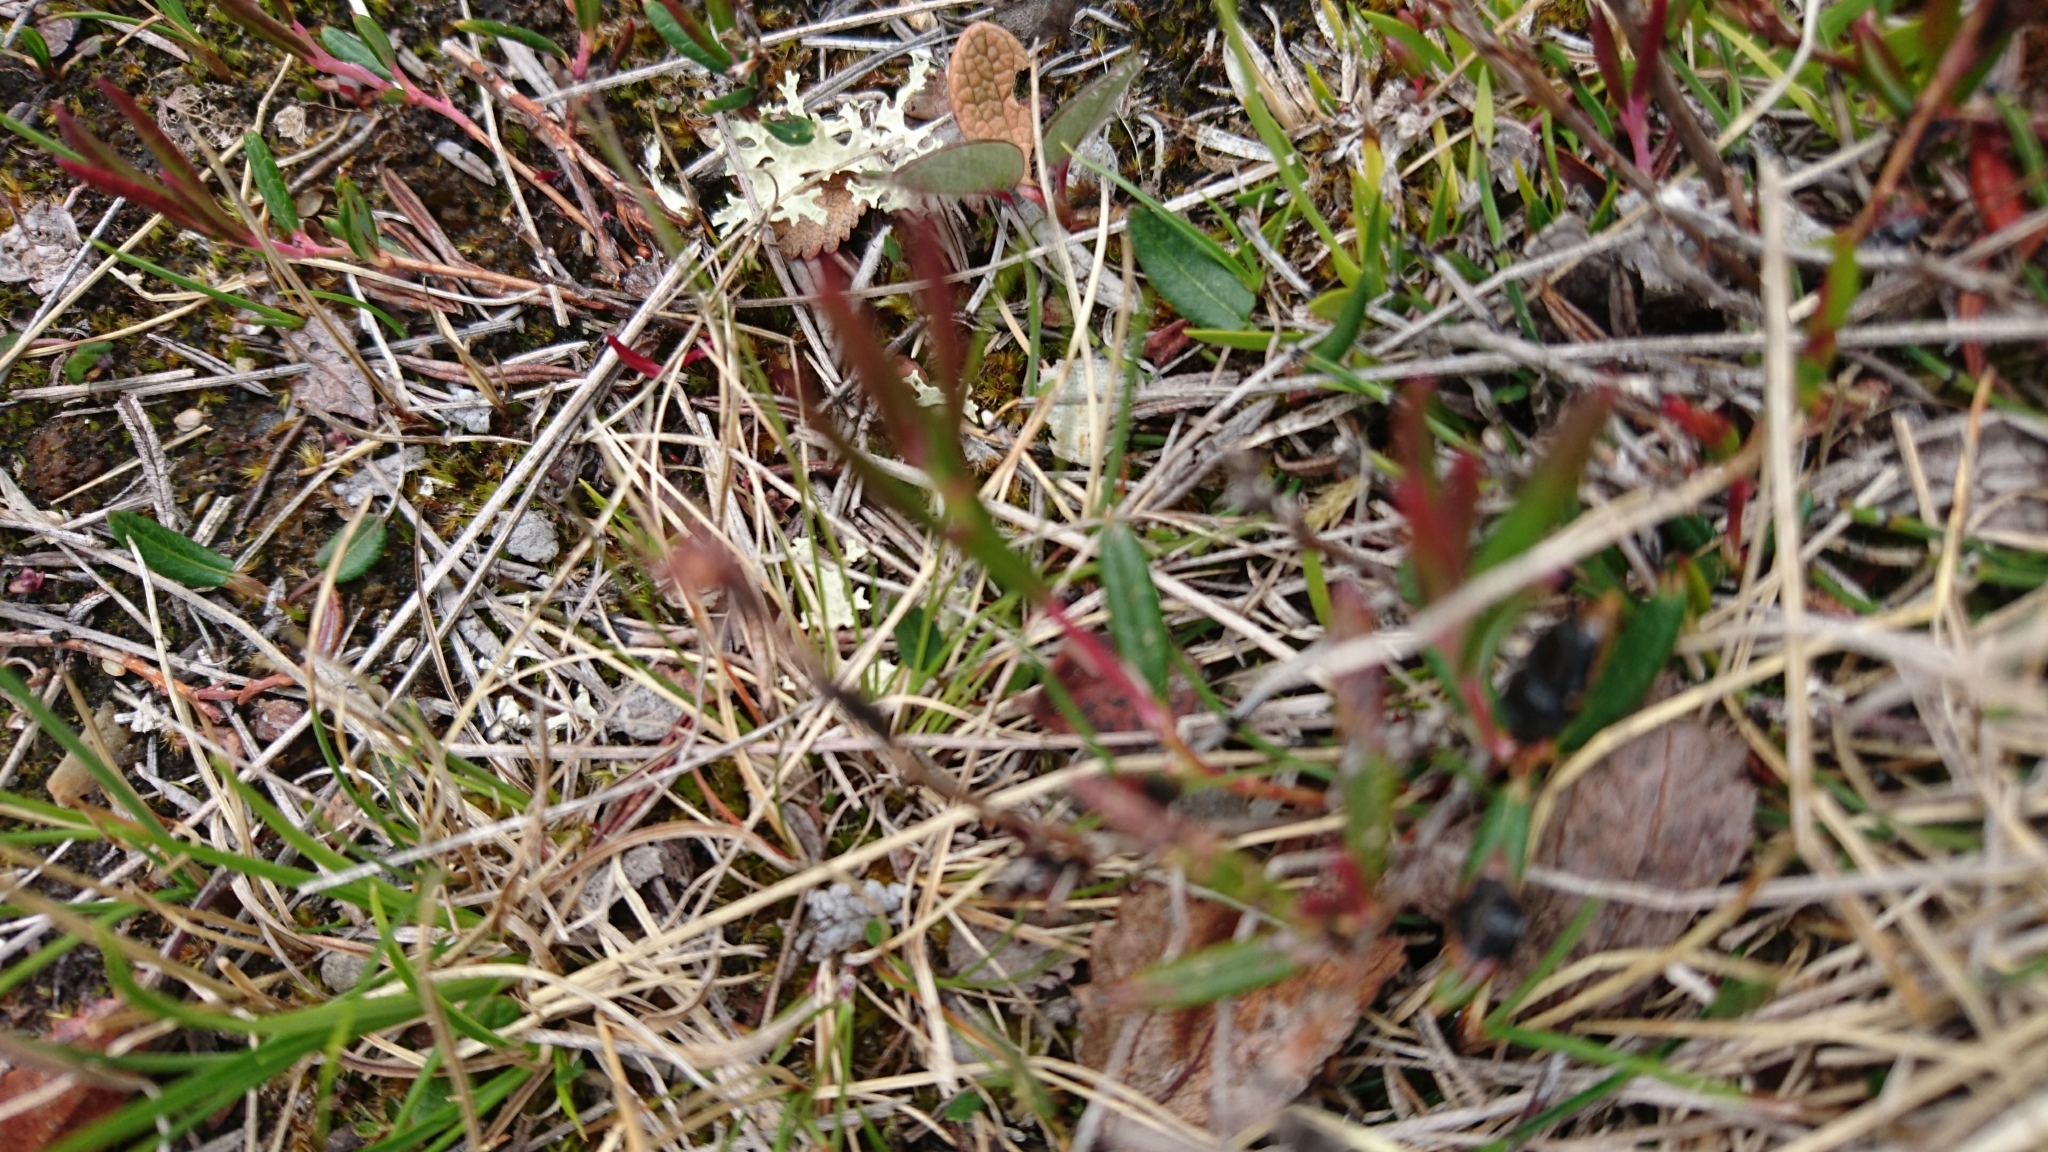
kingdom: Plantae
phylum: Tracheophyta
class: Magnoliopsida
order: Ericales
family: Ericaceae
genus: Andromeda
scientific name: Andromeda polifolia
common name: Bog-rosemary
